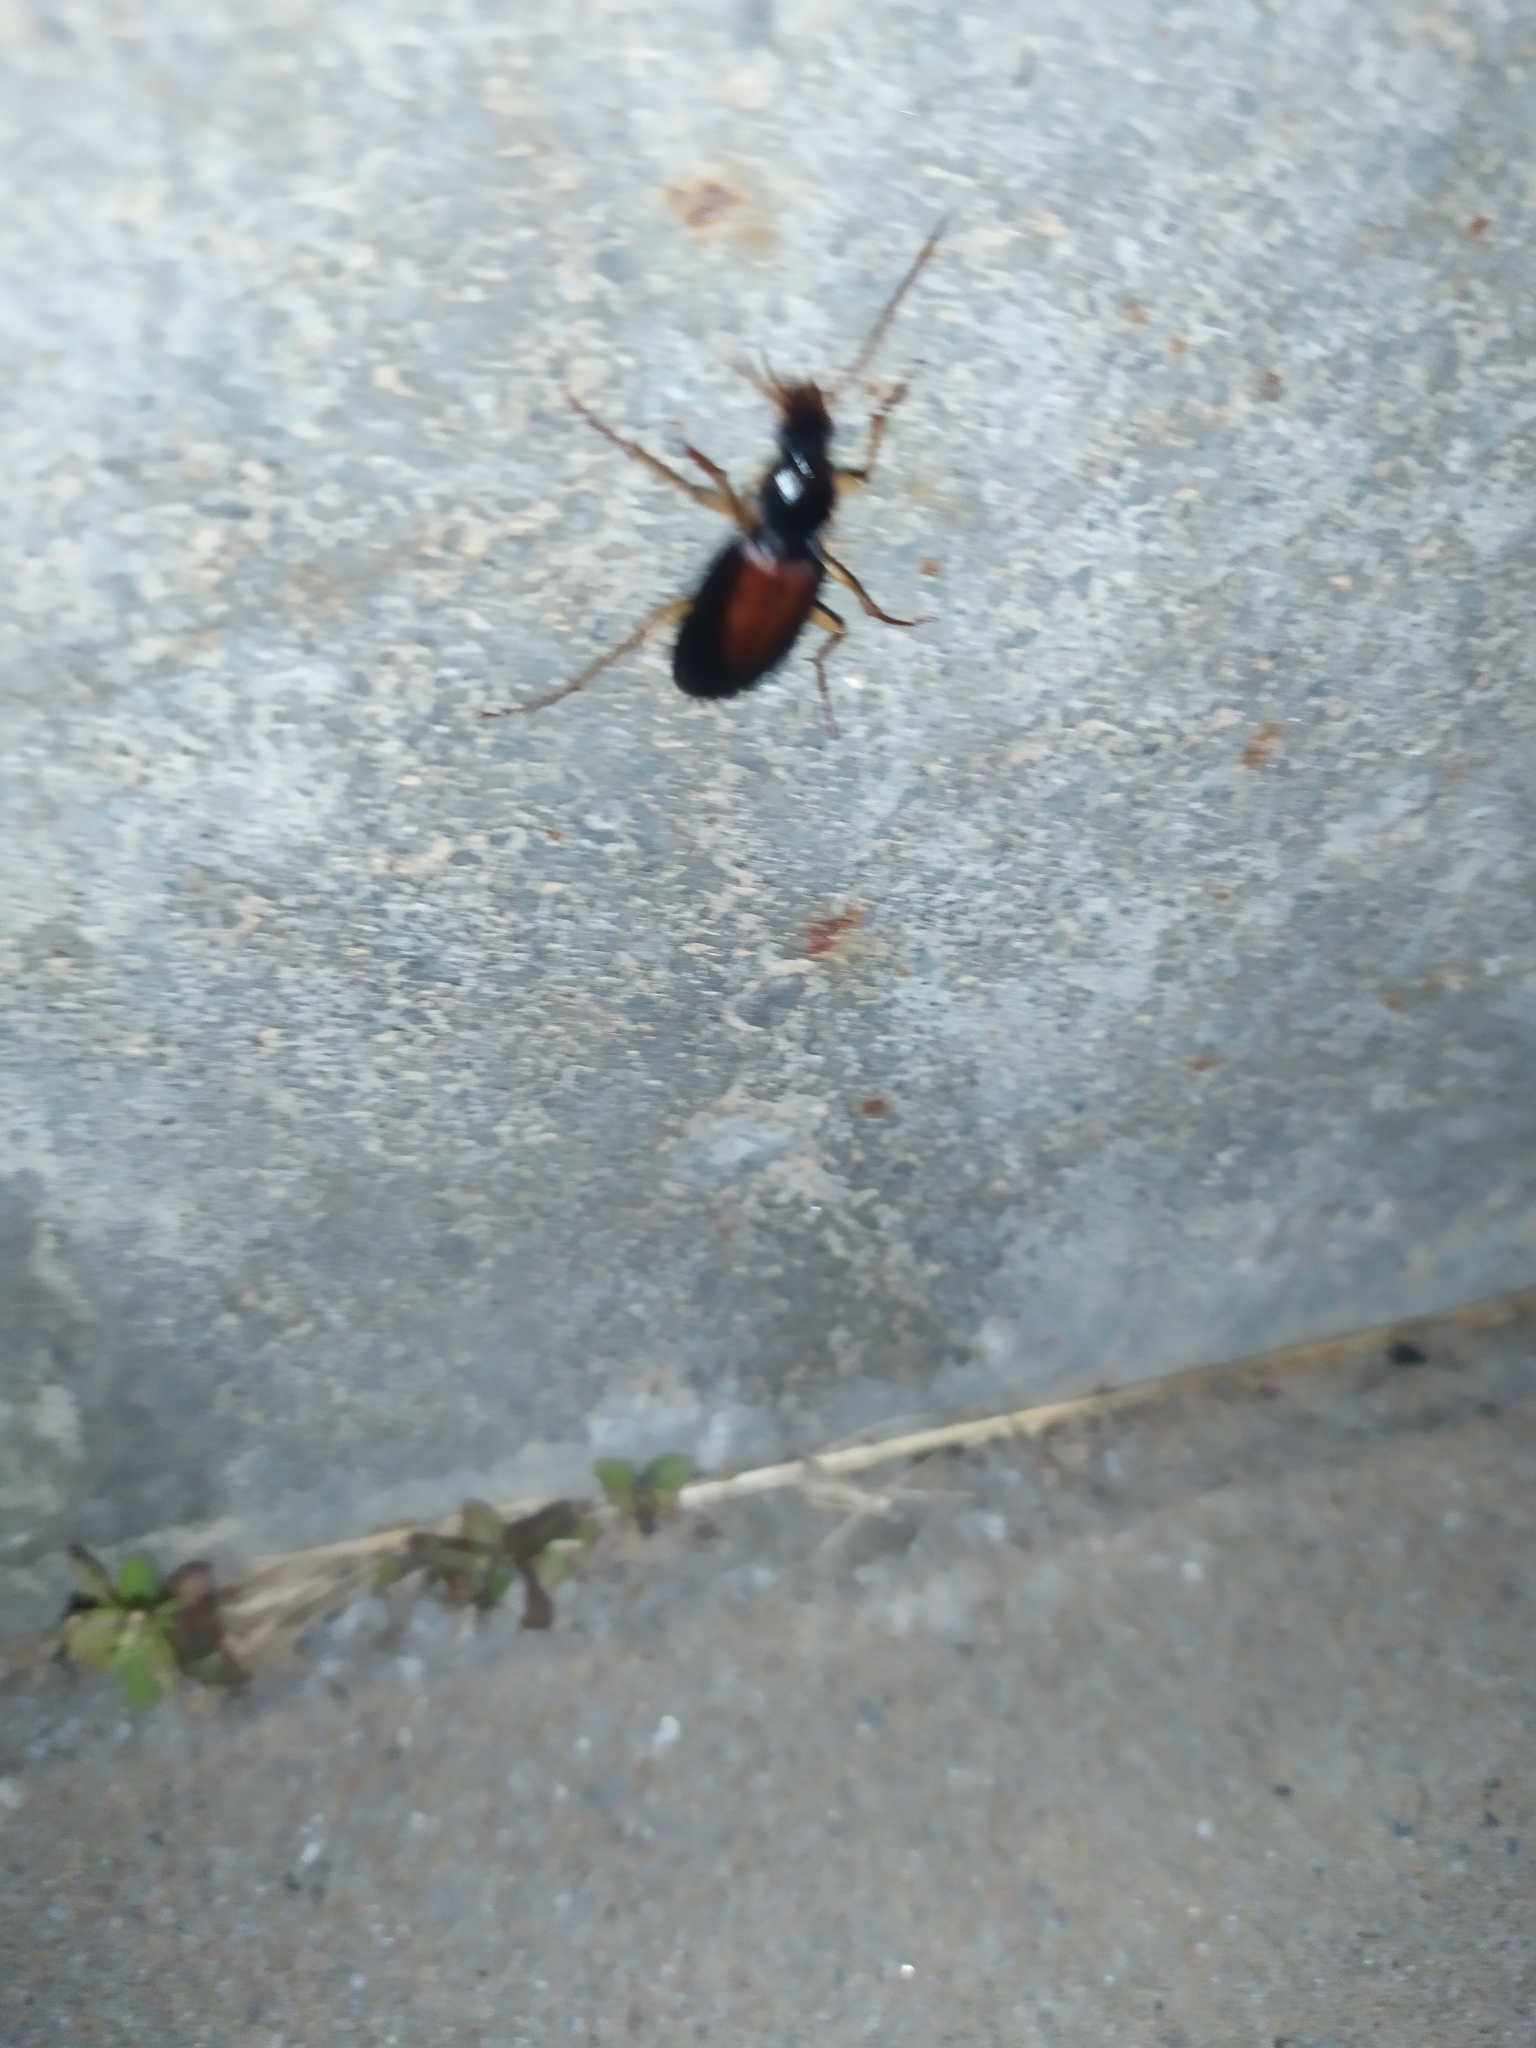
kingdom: Animalia
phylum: Arthropoda
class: Insecta
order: Coleoptera
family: Carabidae
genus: Dolichus
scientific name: Dolichus halensis
